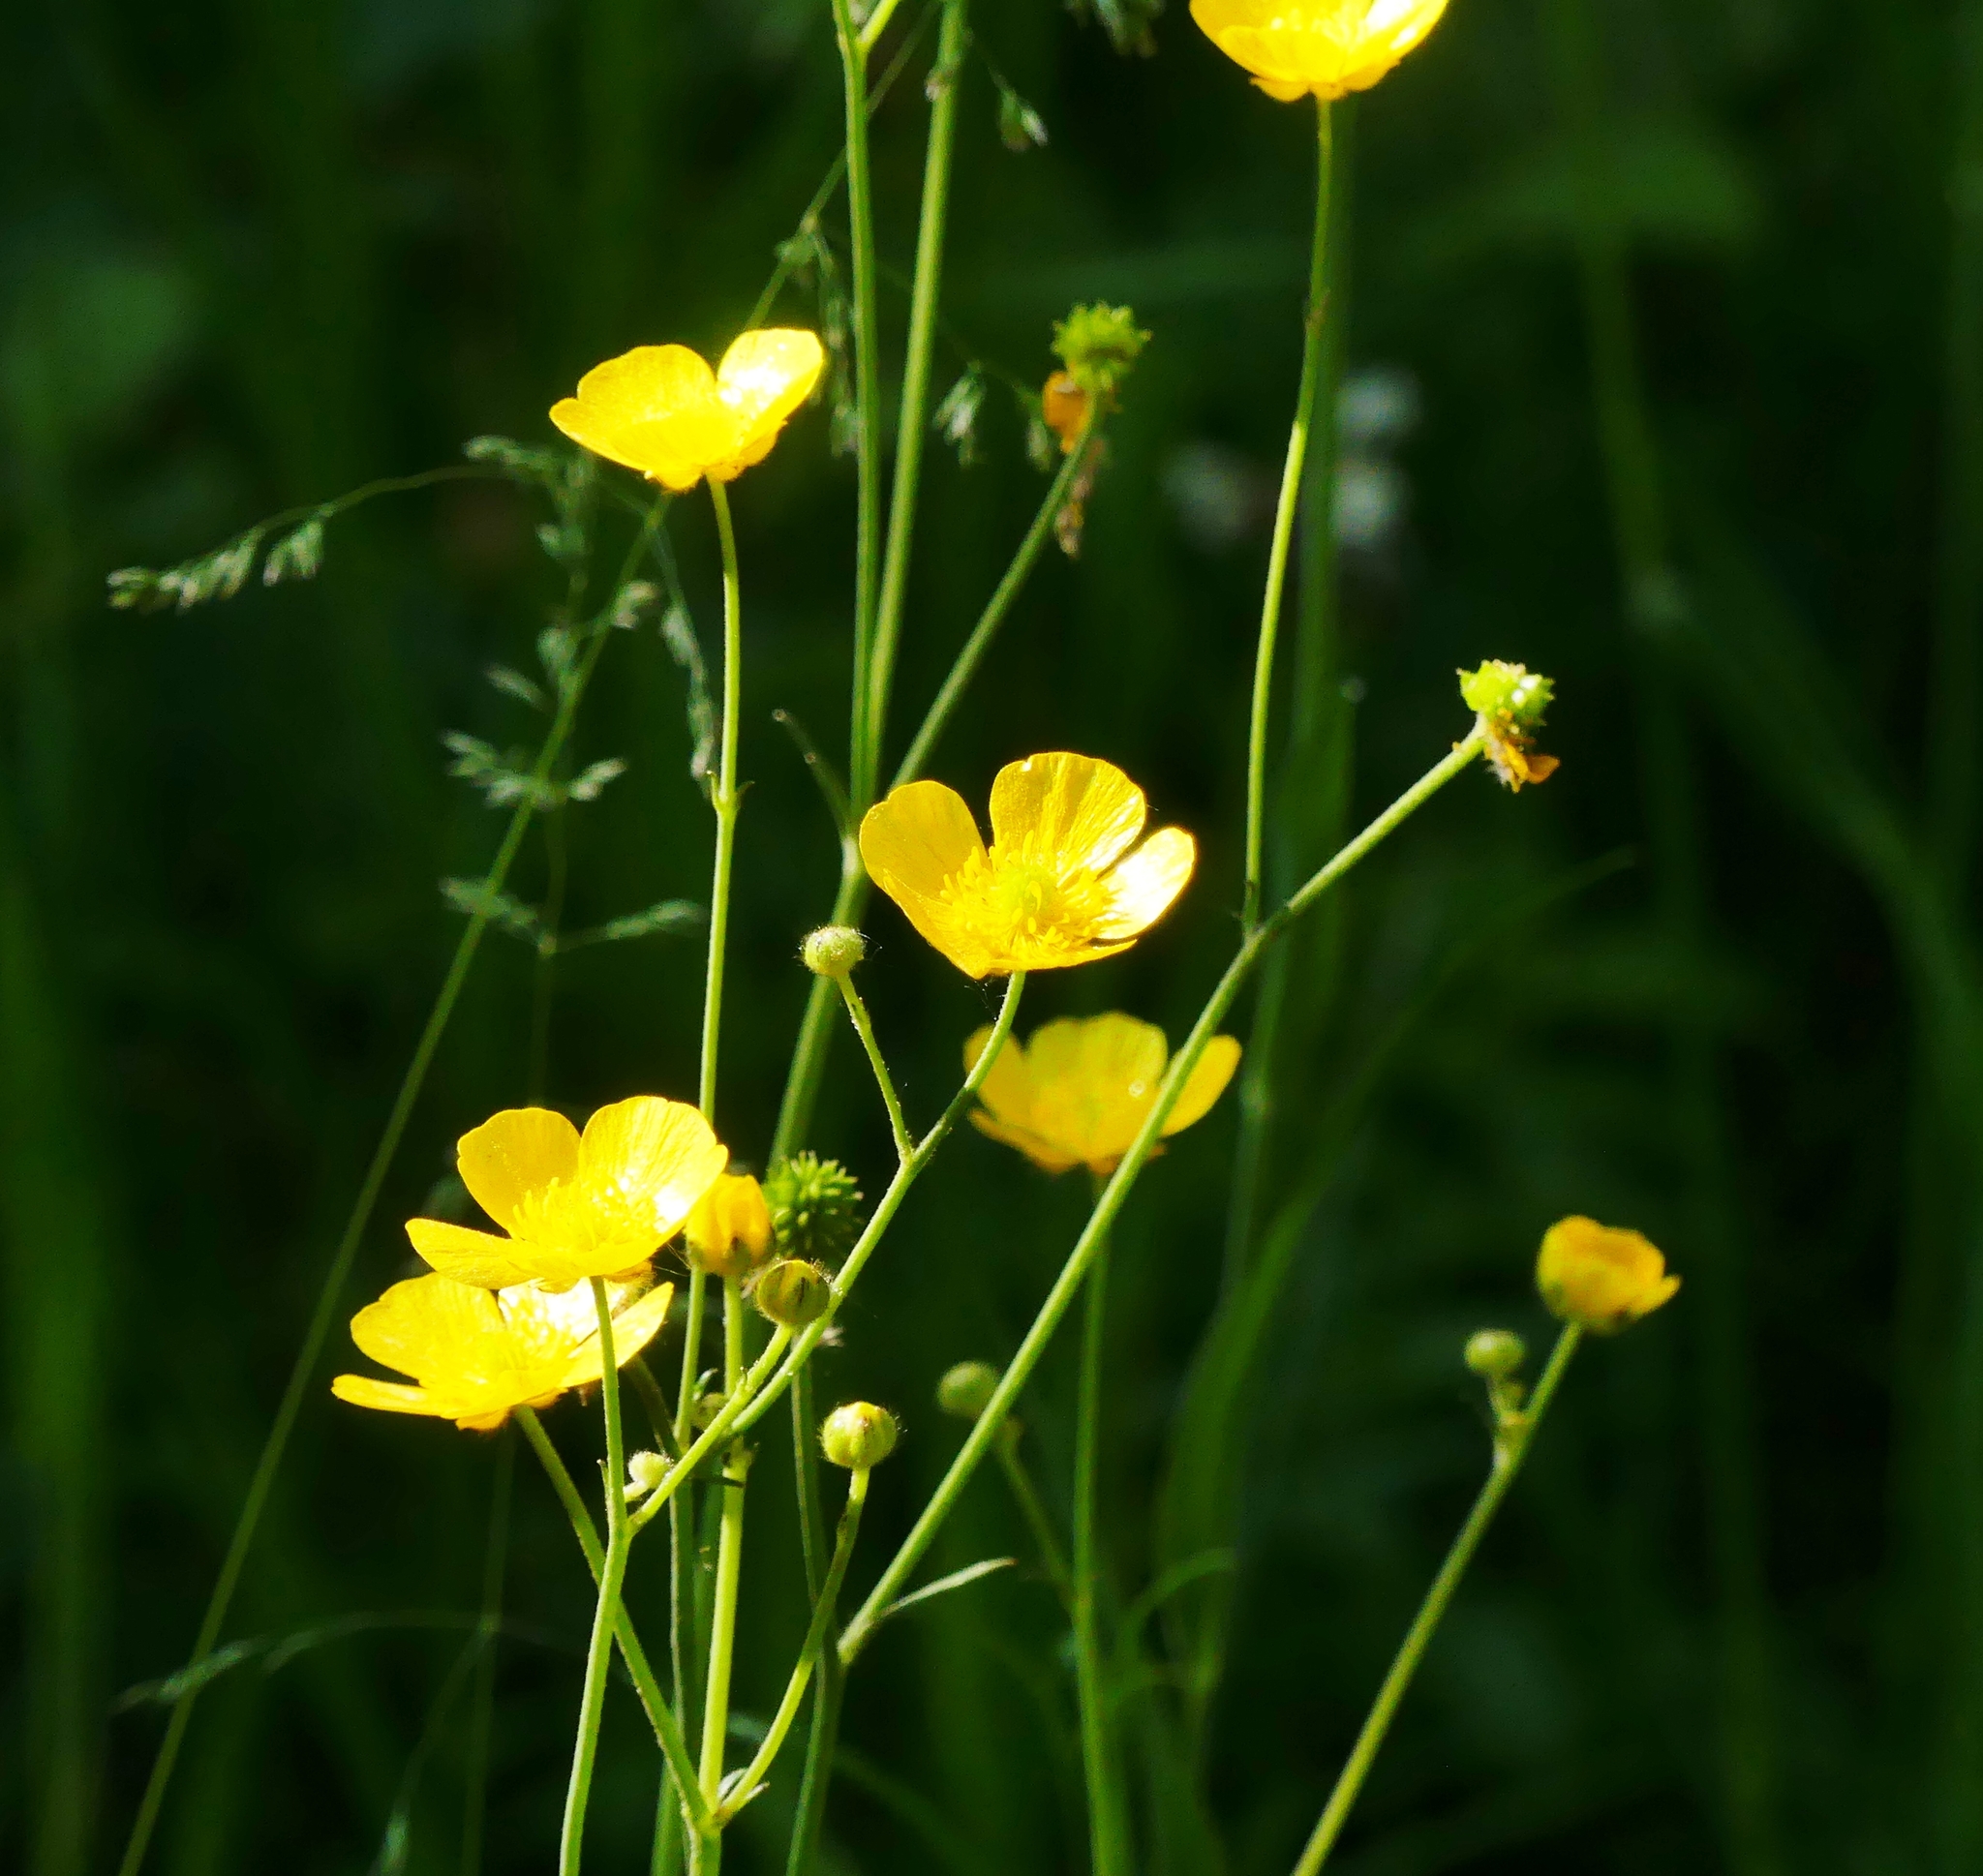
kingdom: Plantae
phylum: Tracheophyta
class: Magnoliopsida
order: Ranunculales
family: Ranunculaceae
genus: Ranunculus
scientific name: Ranunculus acris
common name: Meadow buttercup
